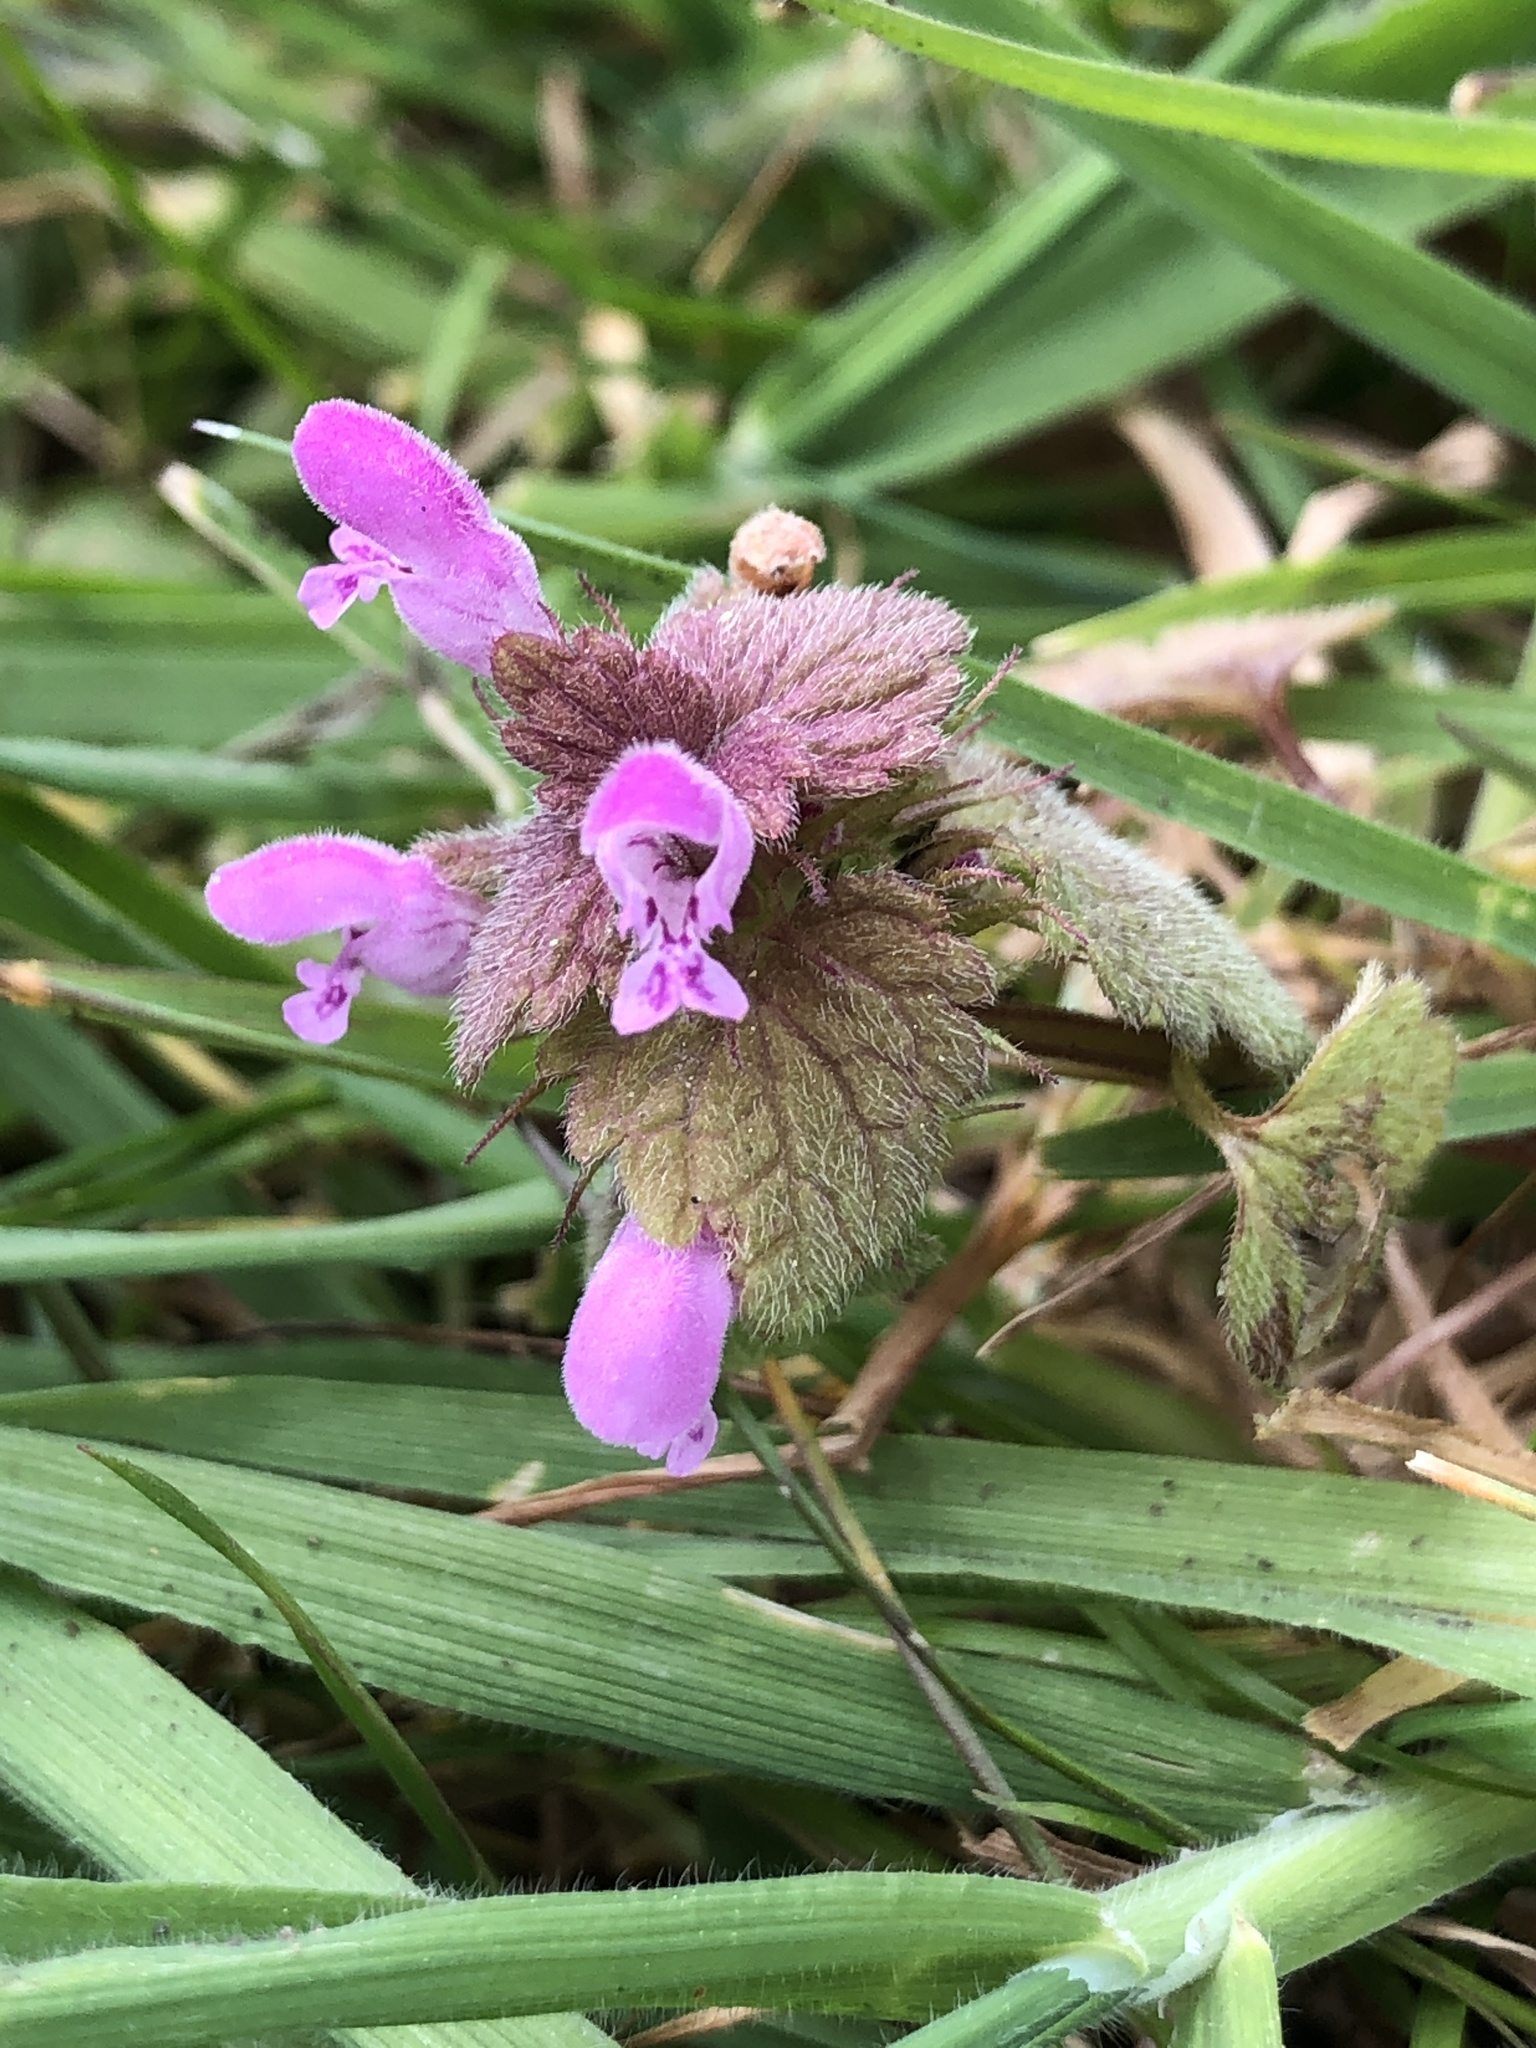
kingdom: Plantae
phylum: Tracheophyta
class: Magnoliopsida
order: Lamiales
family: Lamiaceae
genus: Lamium
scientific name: Lamium purpureum
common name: Red dead-nettle
